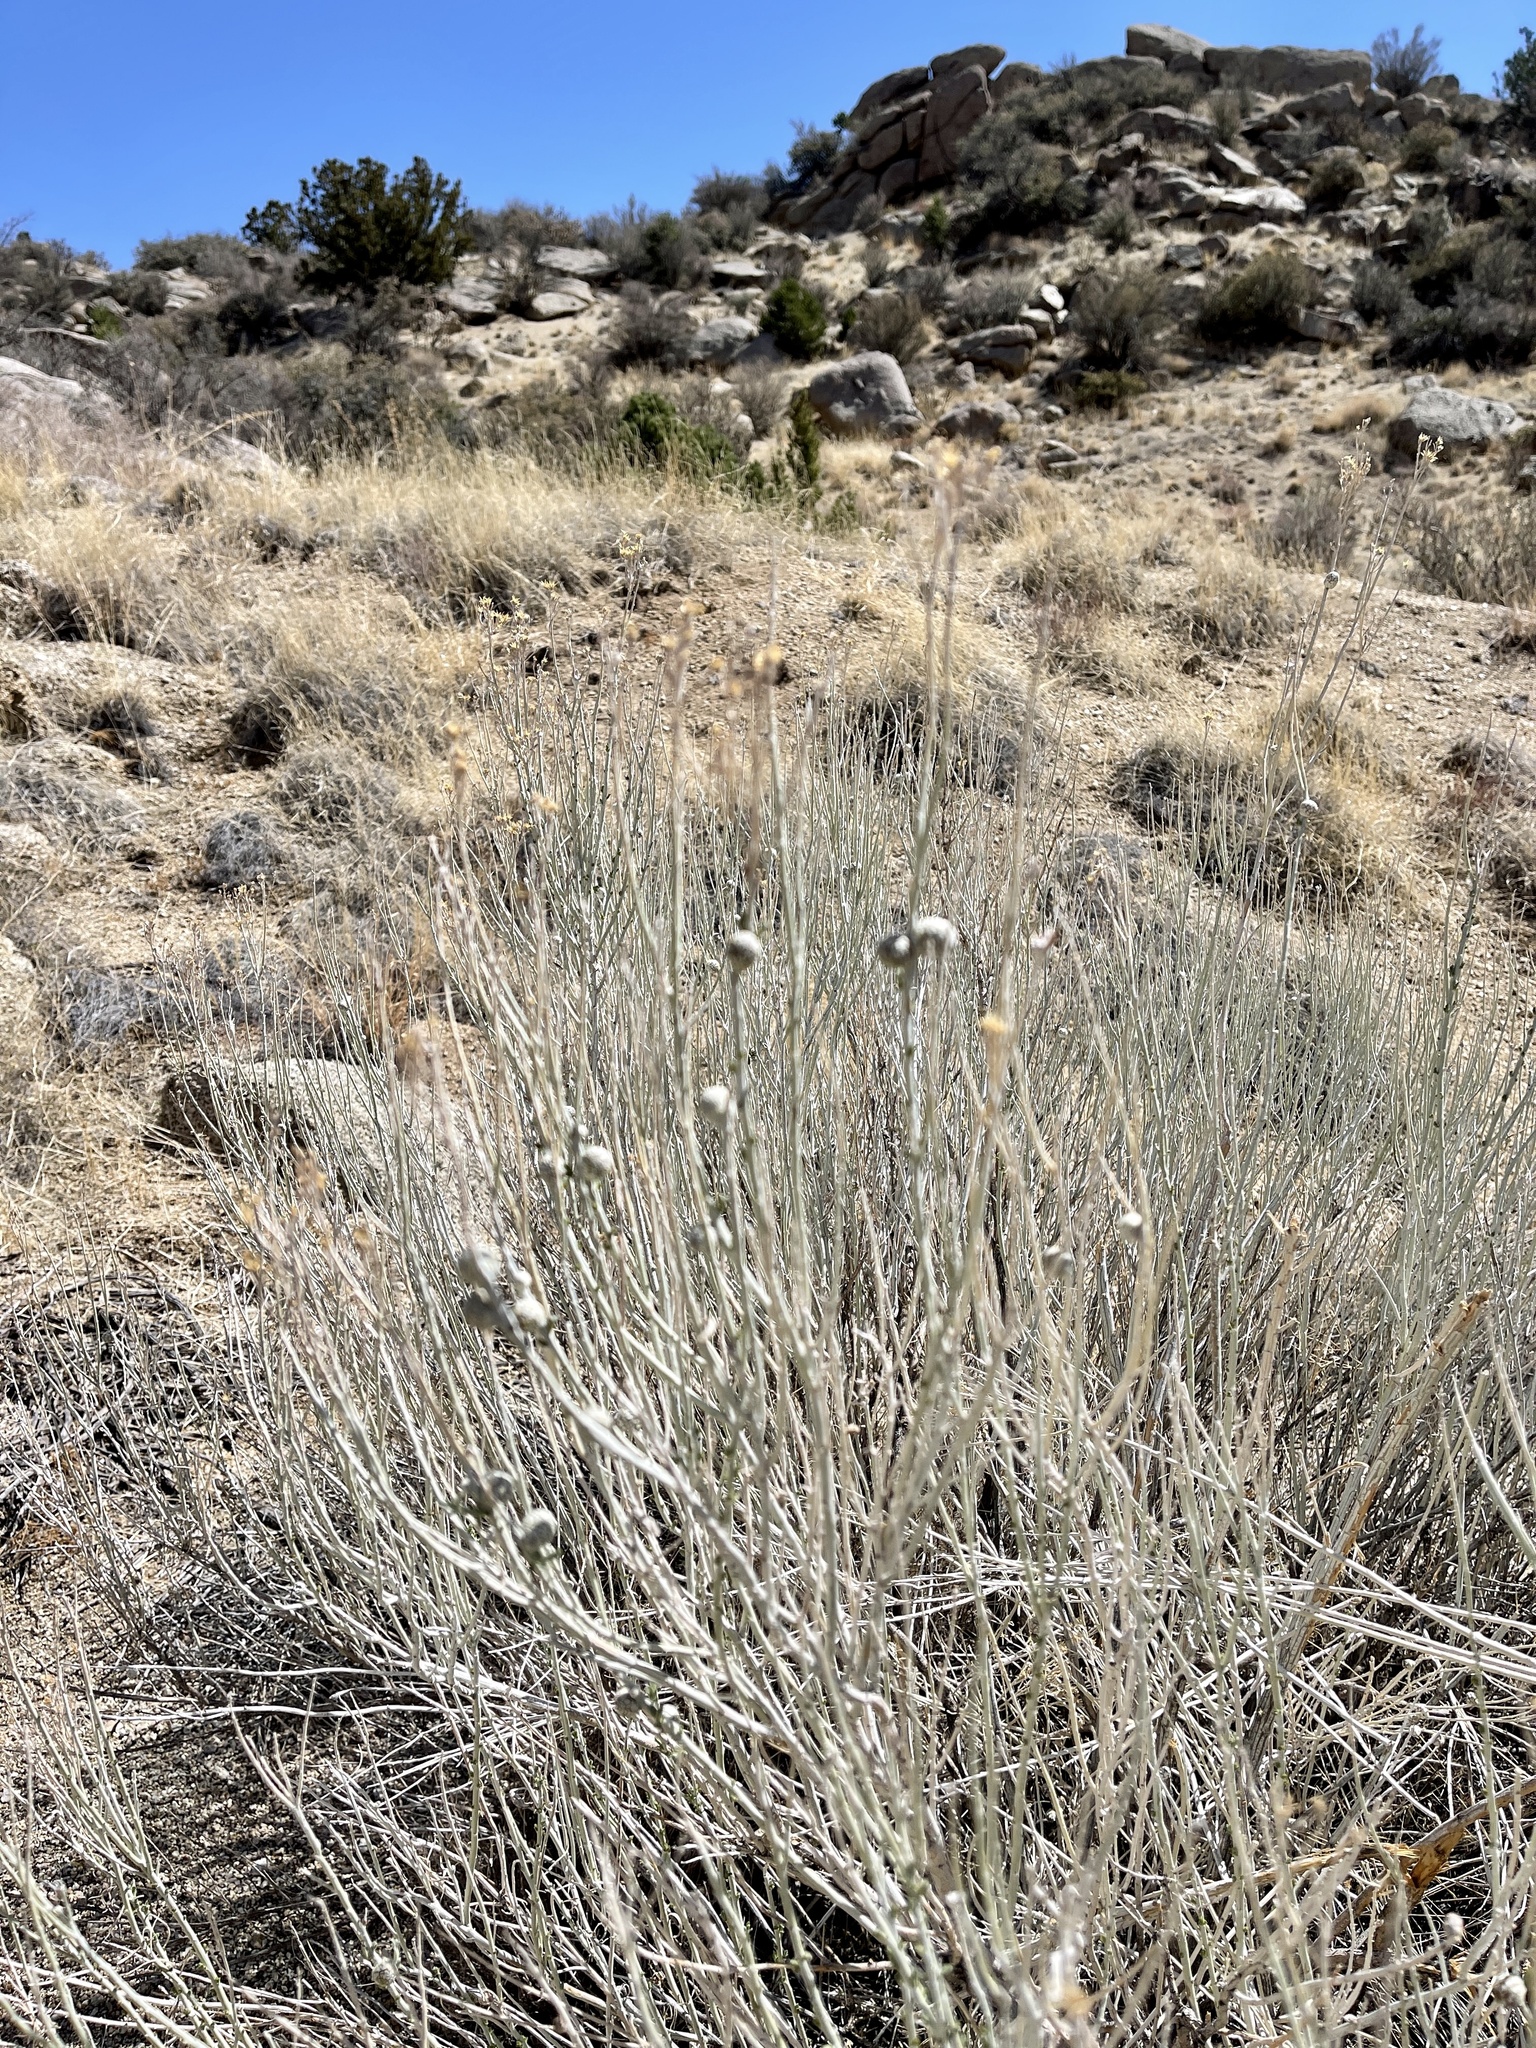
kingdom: Animalia
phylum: Arthropoda
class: Insecta
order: Diptera
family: Tephritidae
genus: Aciurina
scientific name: Aciurina trixa
